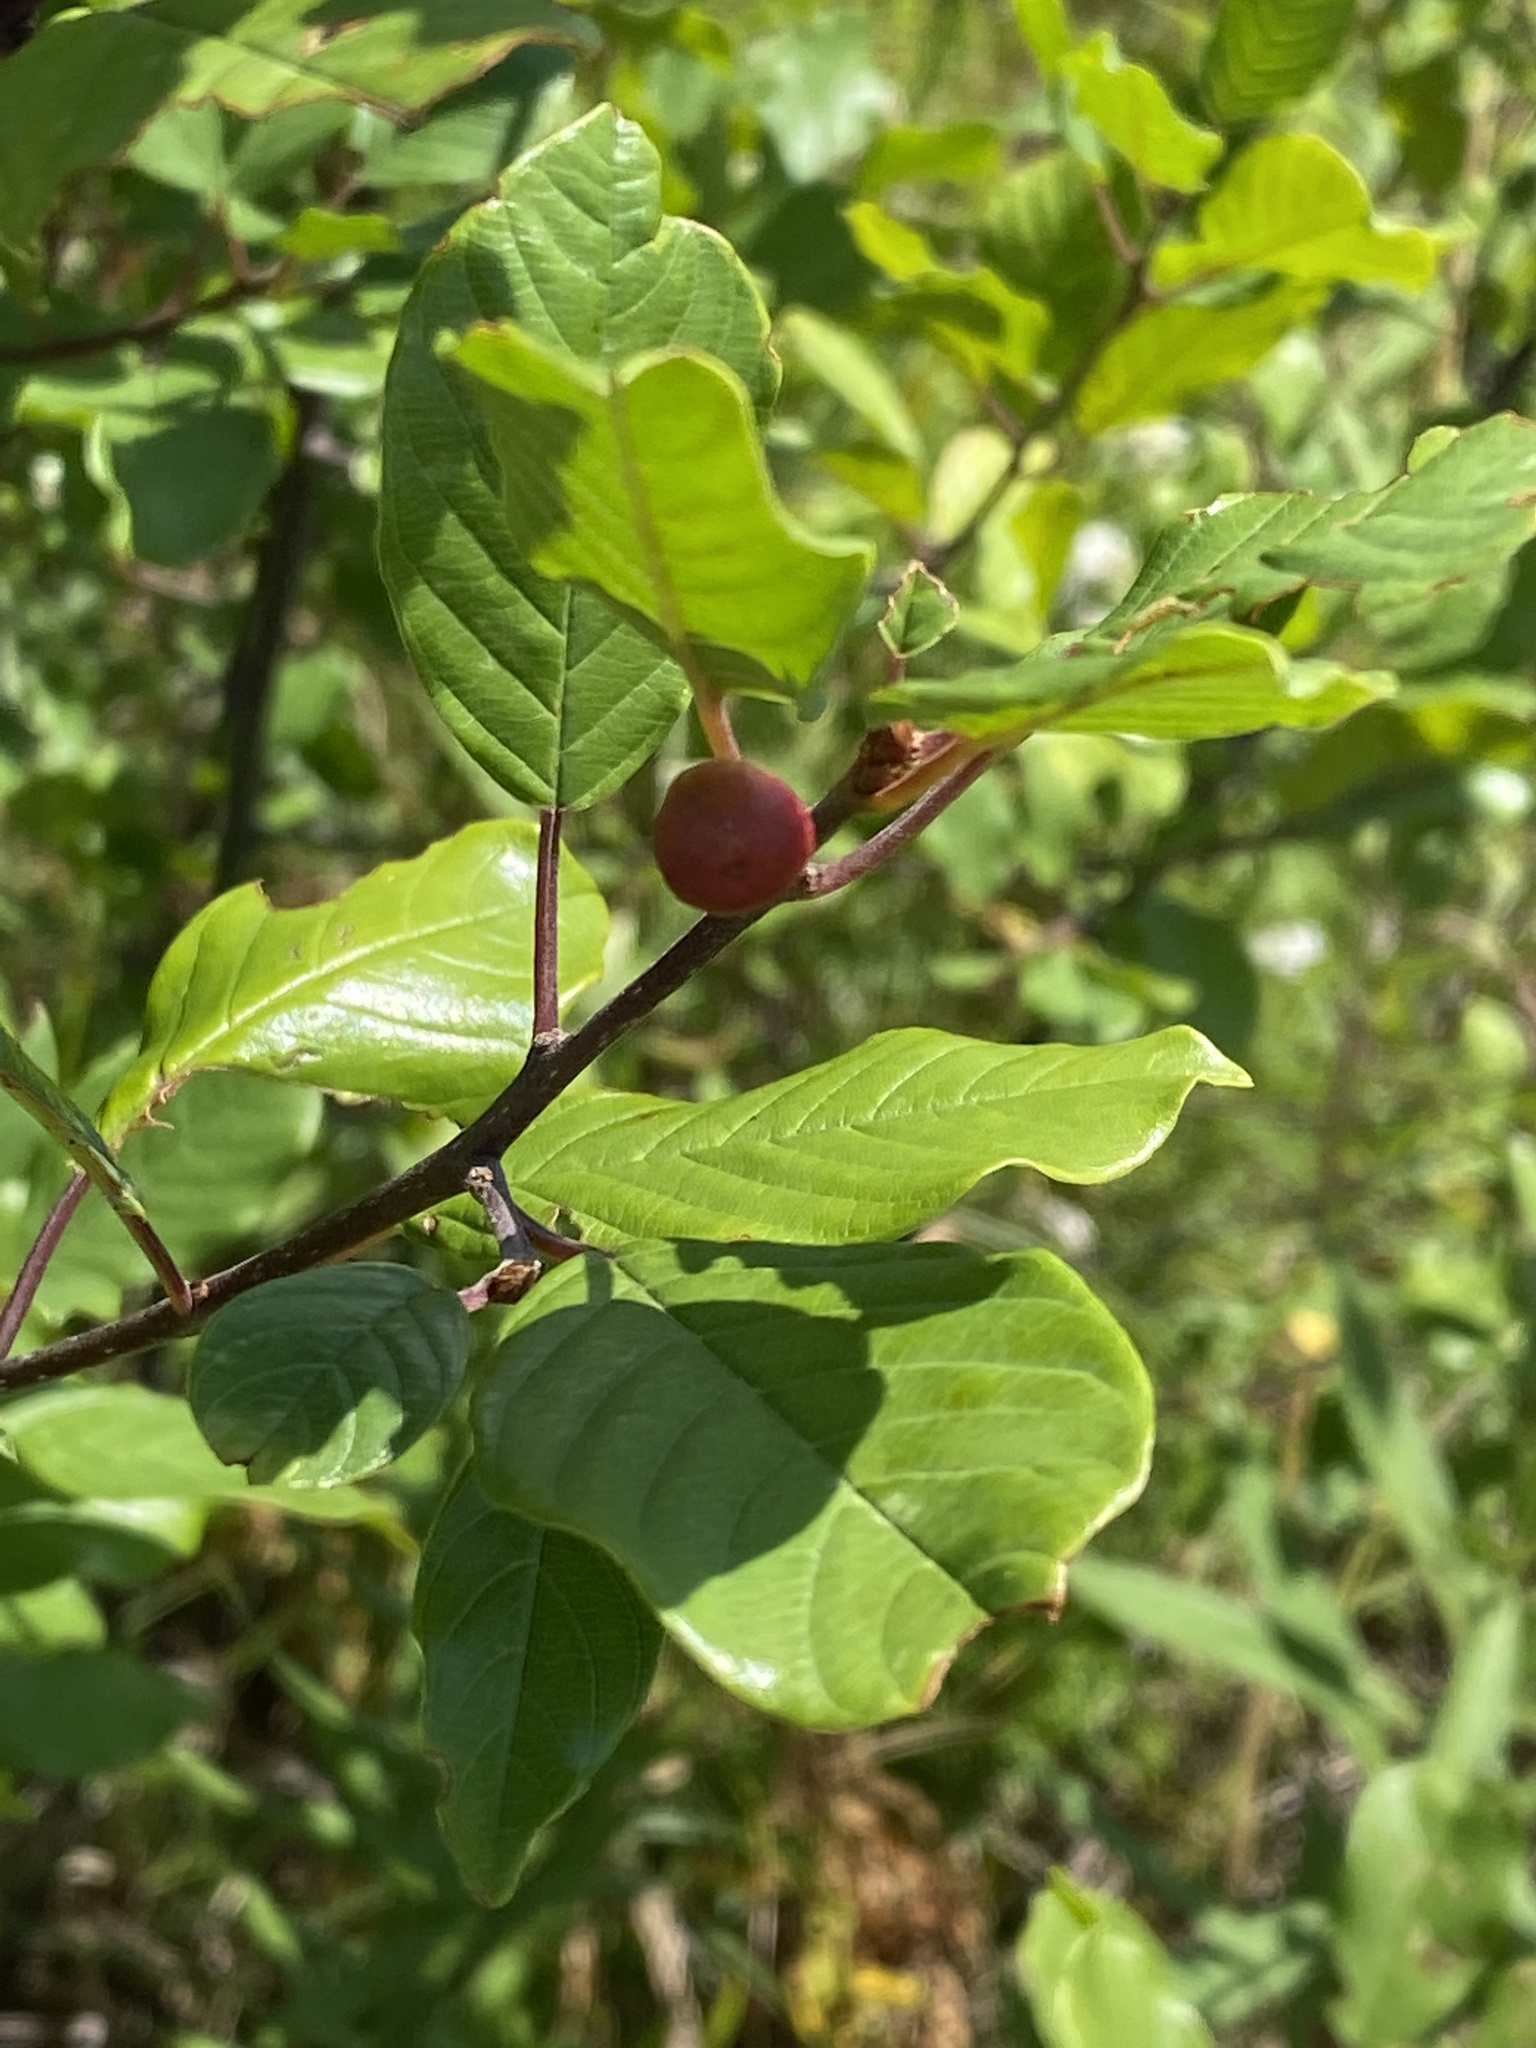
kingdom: Plantae
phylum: Tracheophyta
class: Magnoliopsida
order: Rosales
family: Rhamnaceae
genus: Frangula
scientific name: Frangula alnus
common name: Alder buckthorn
